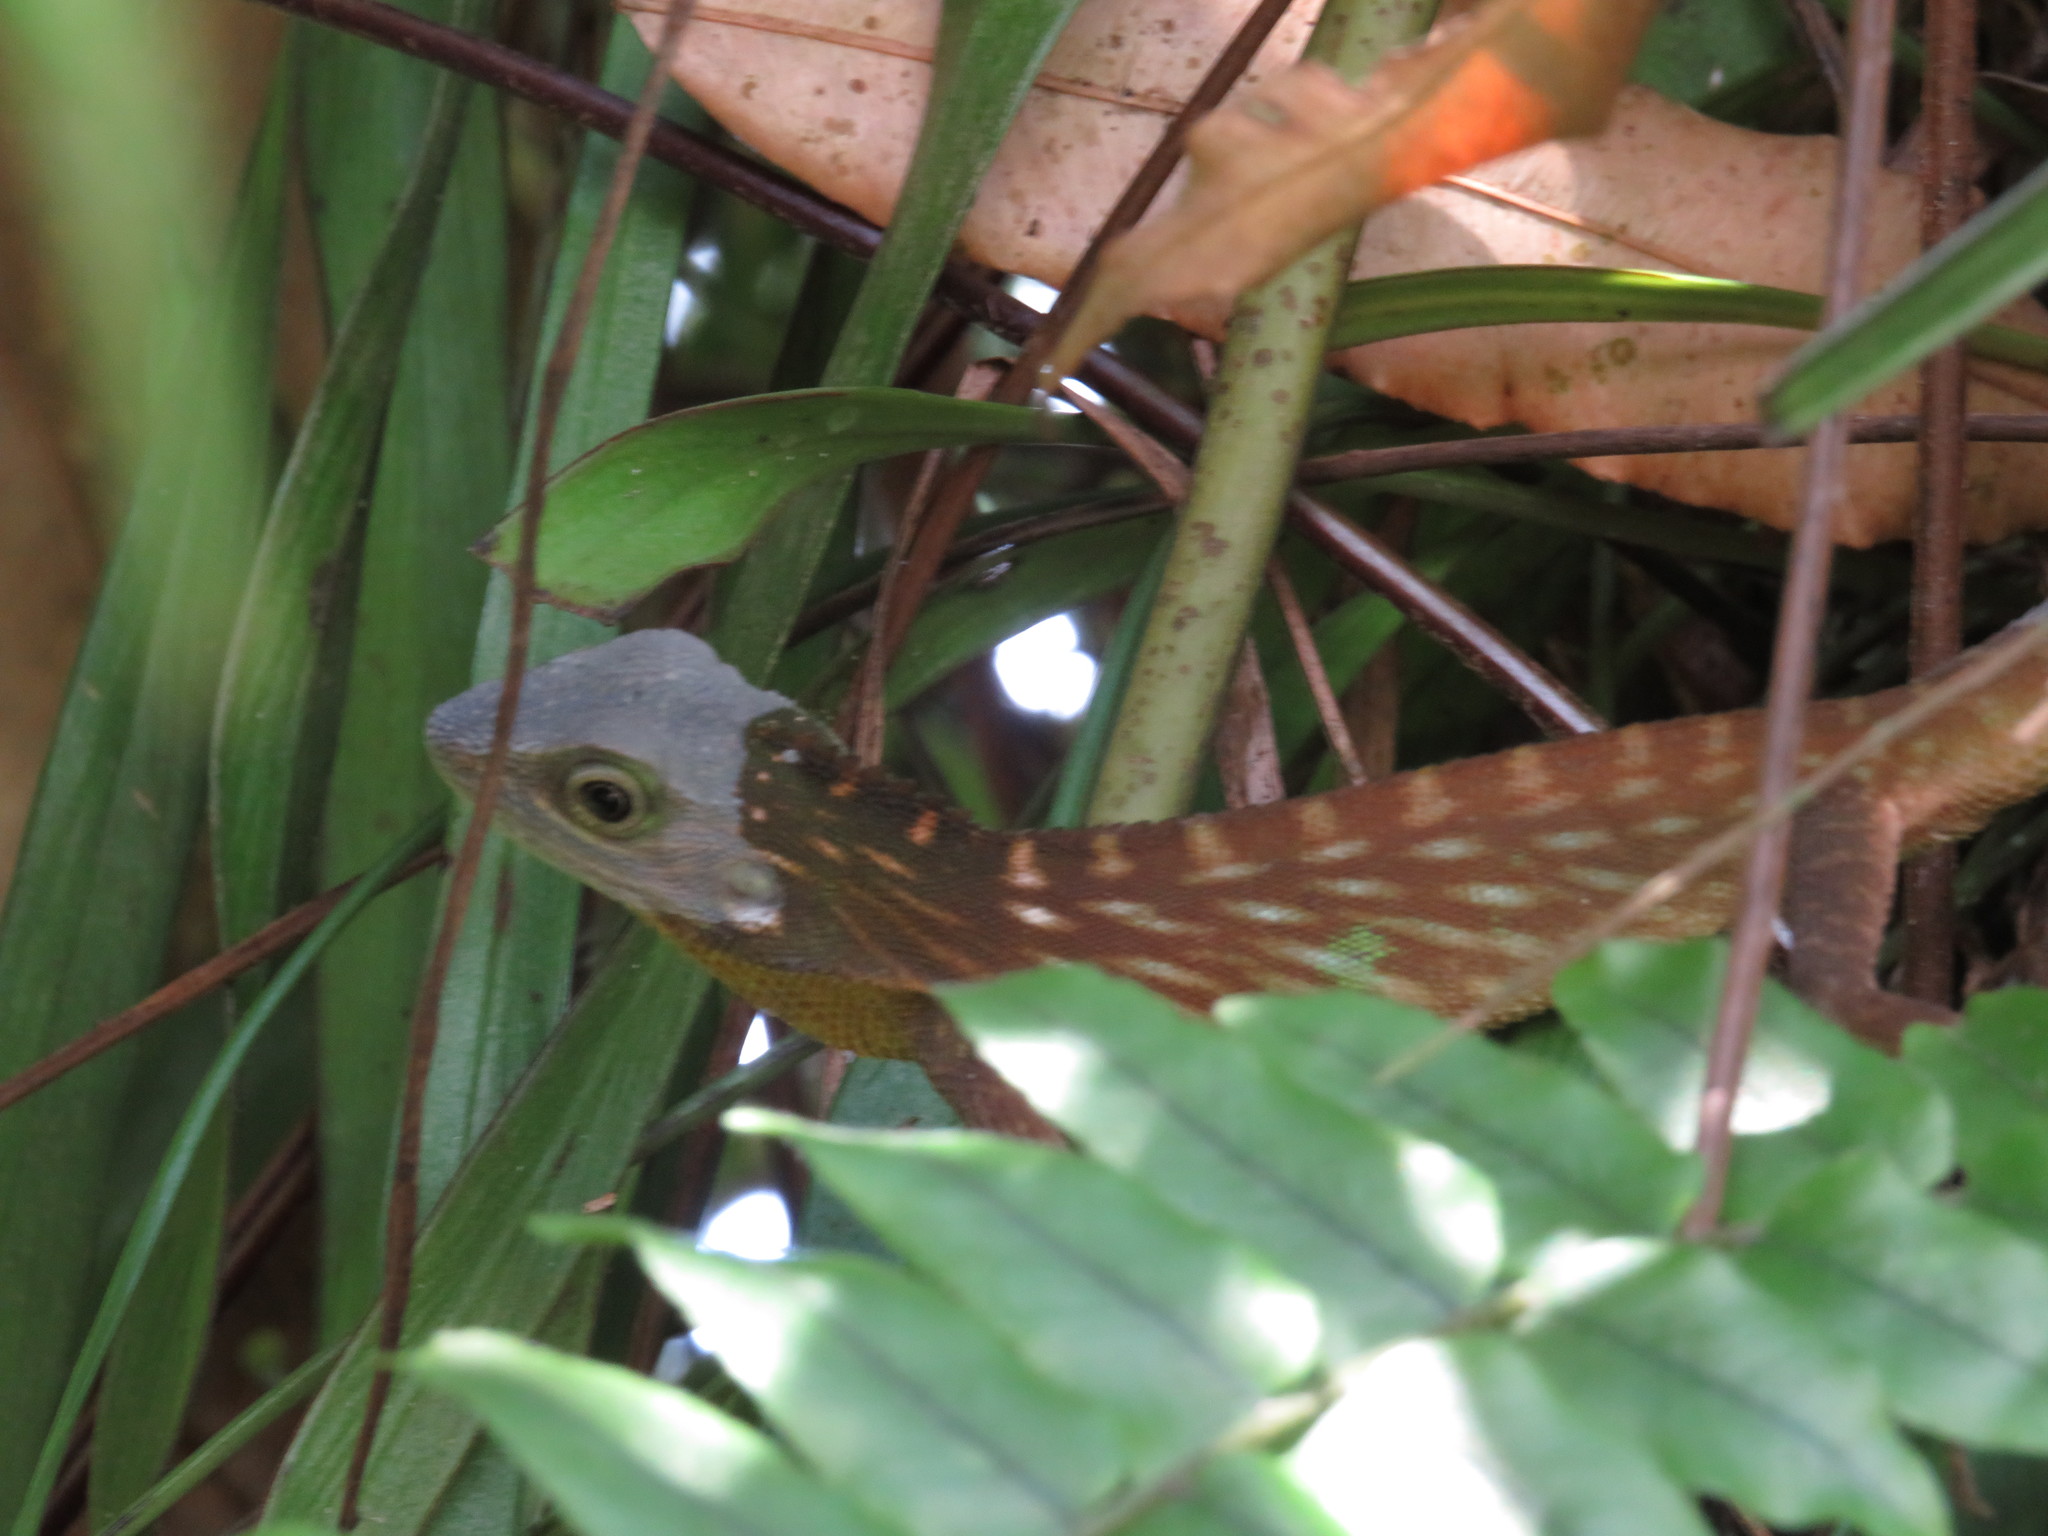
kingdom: Animalia
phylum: Chordata
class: Squamata
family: Agamidae
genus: Bronchocela
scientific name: Bronchocela cristatella
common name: Green crested lizard
